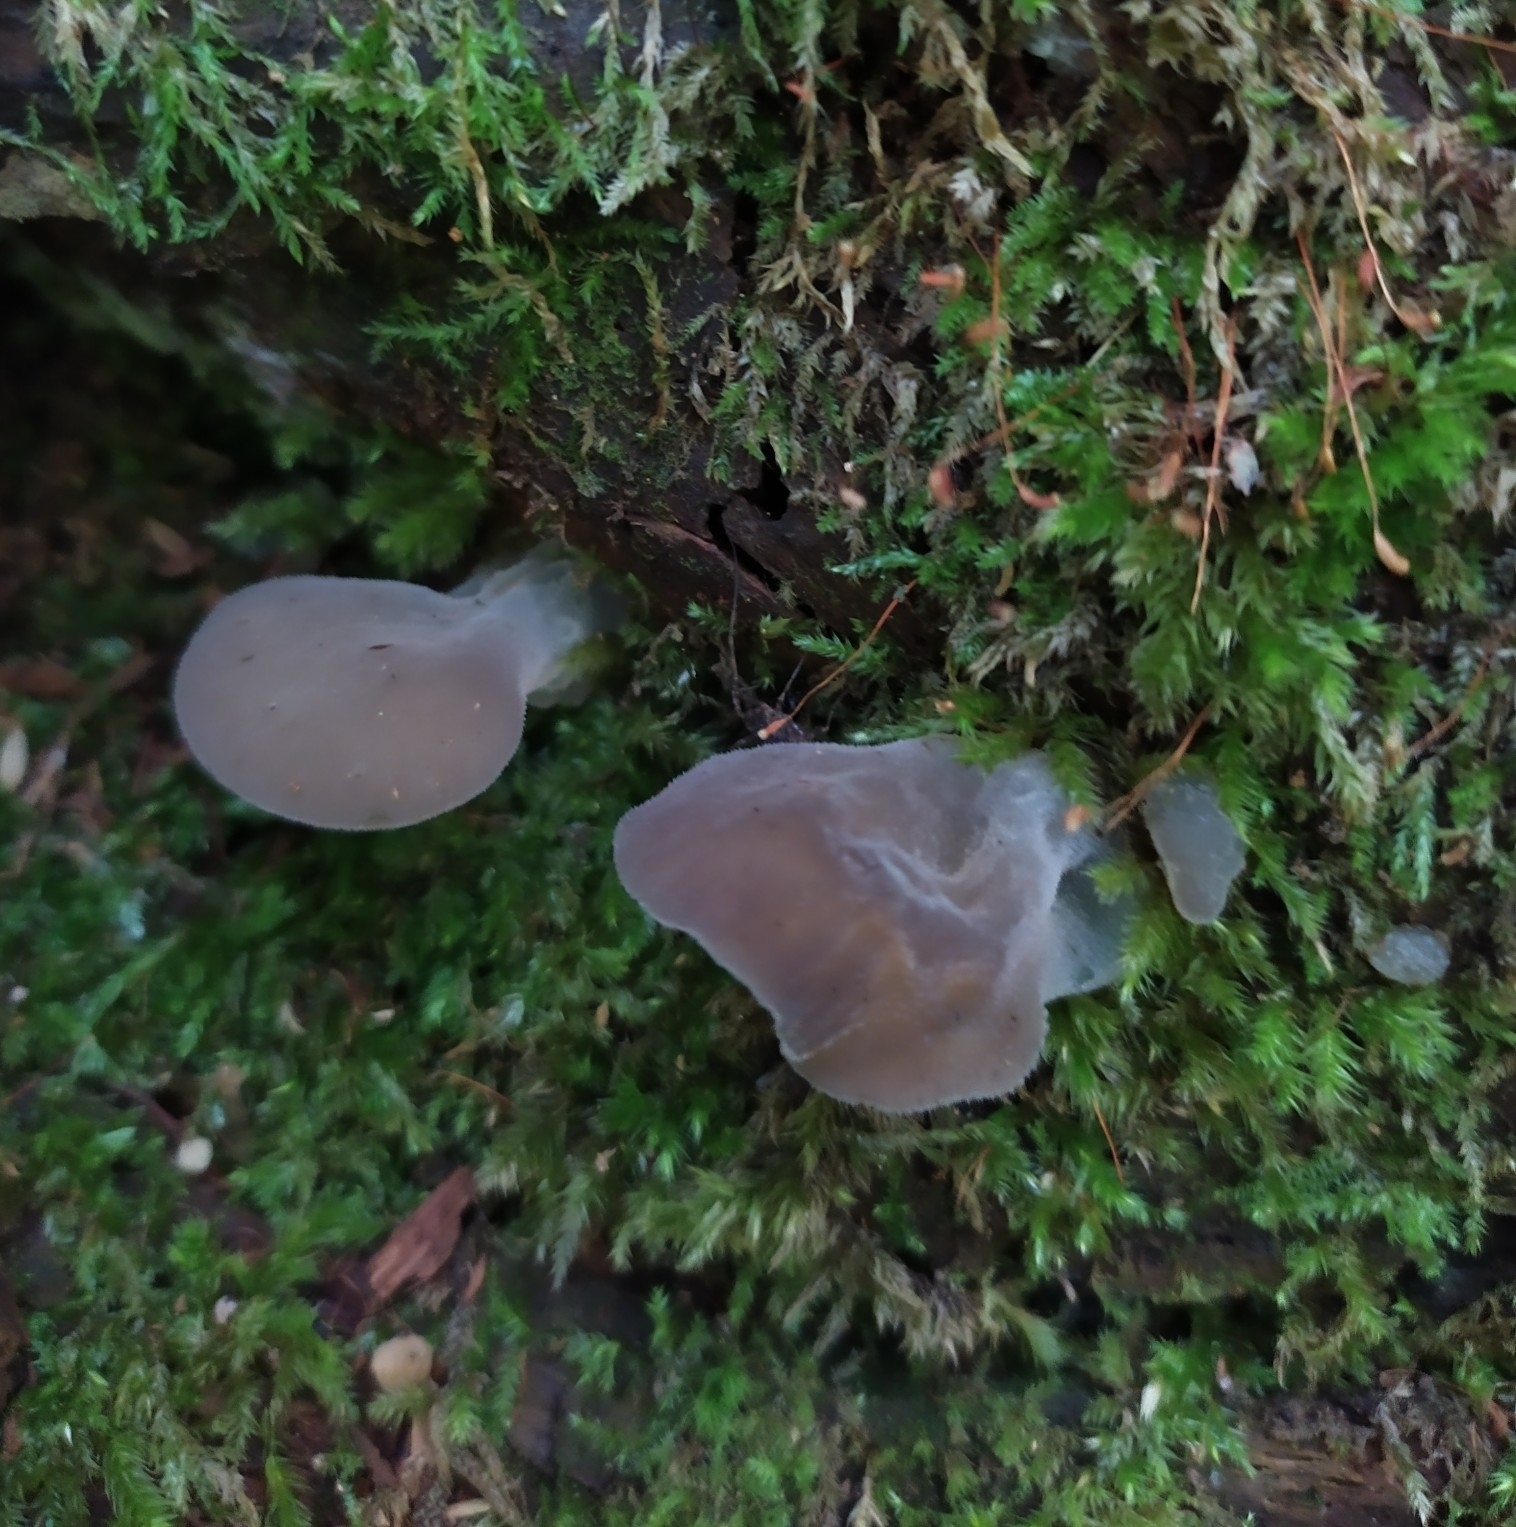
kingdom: Fungi
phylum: Basidiomycota
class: Agaricomycetes
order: Auriculariales
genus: Pseudohydnum
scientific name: Pseudohydnum gelatinosum
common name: Jelly tongue
